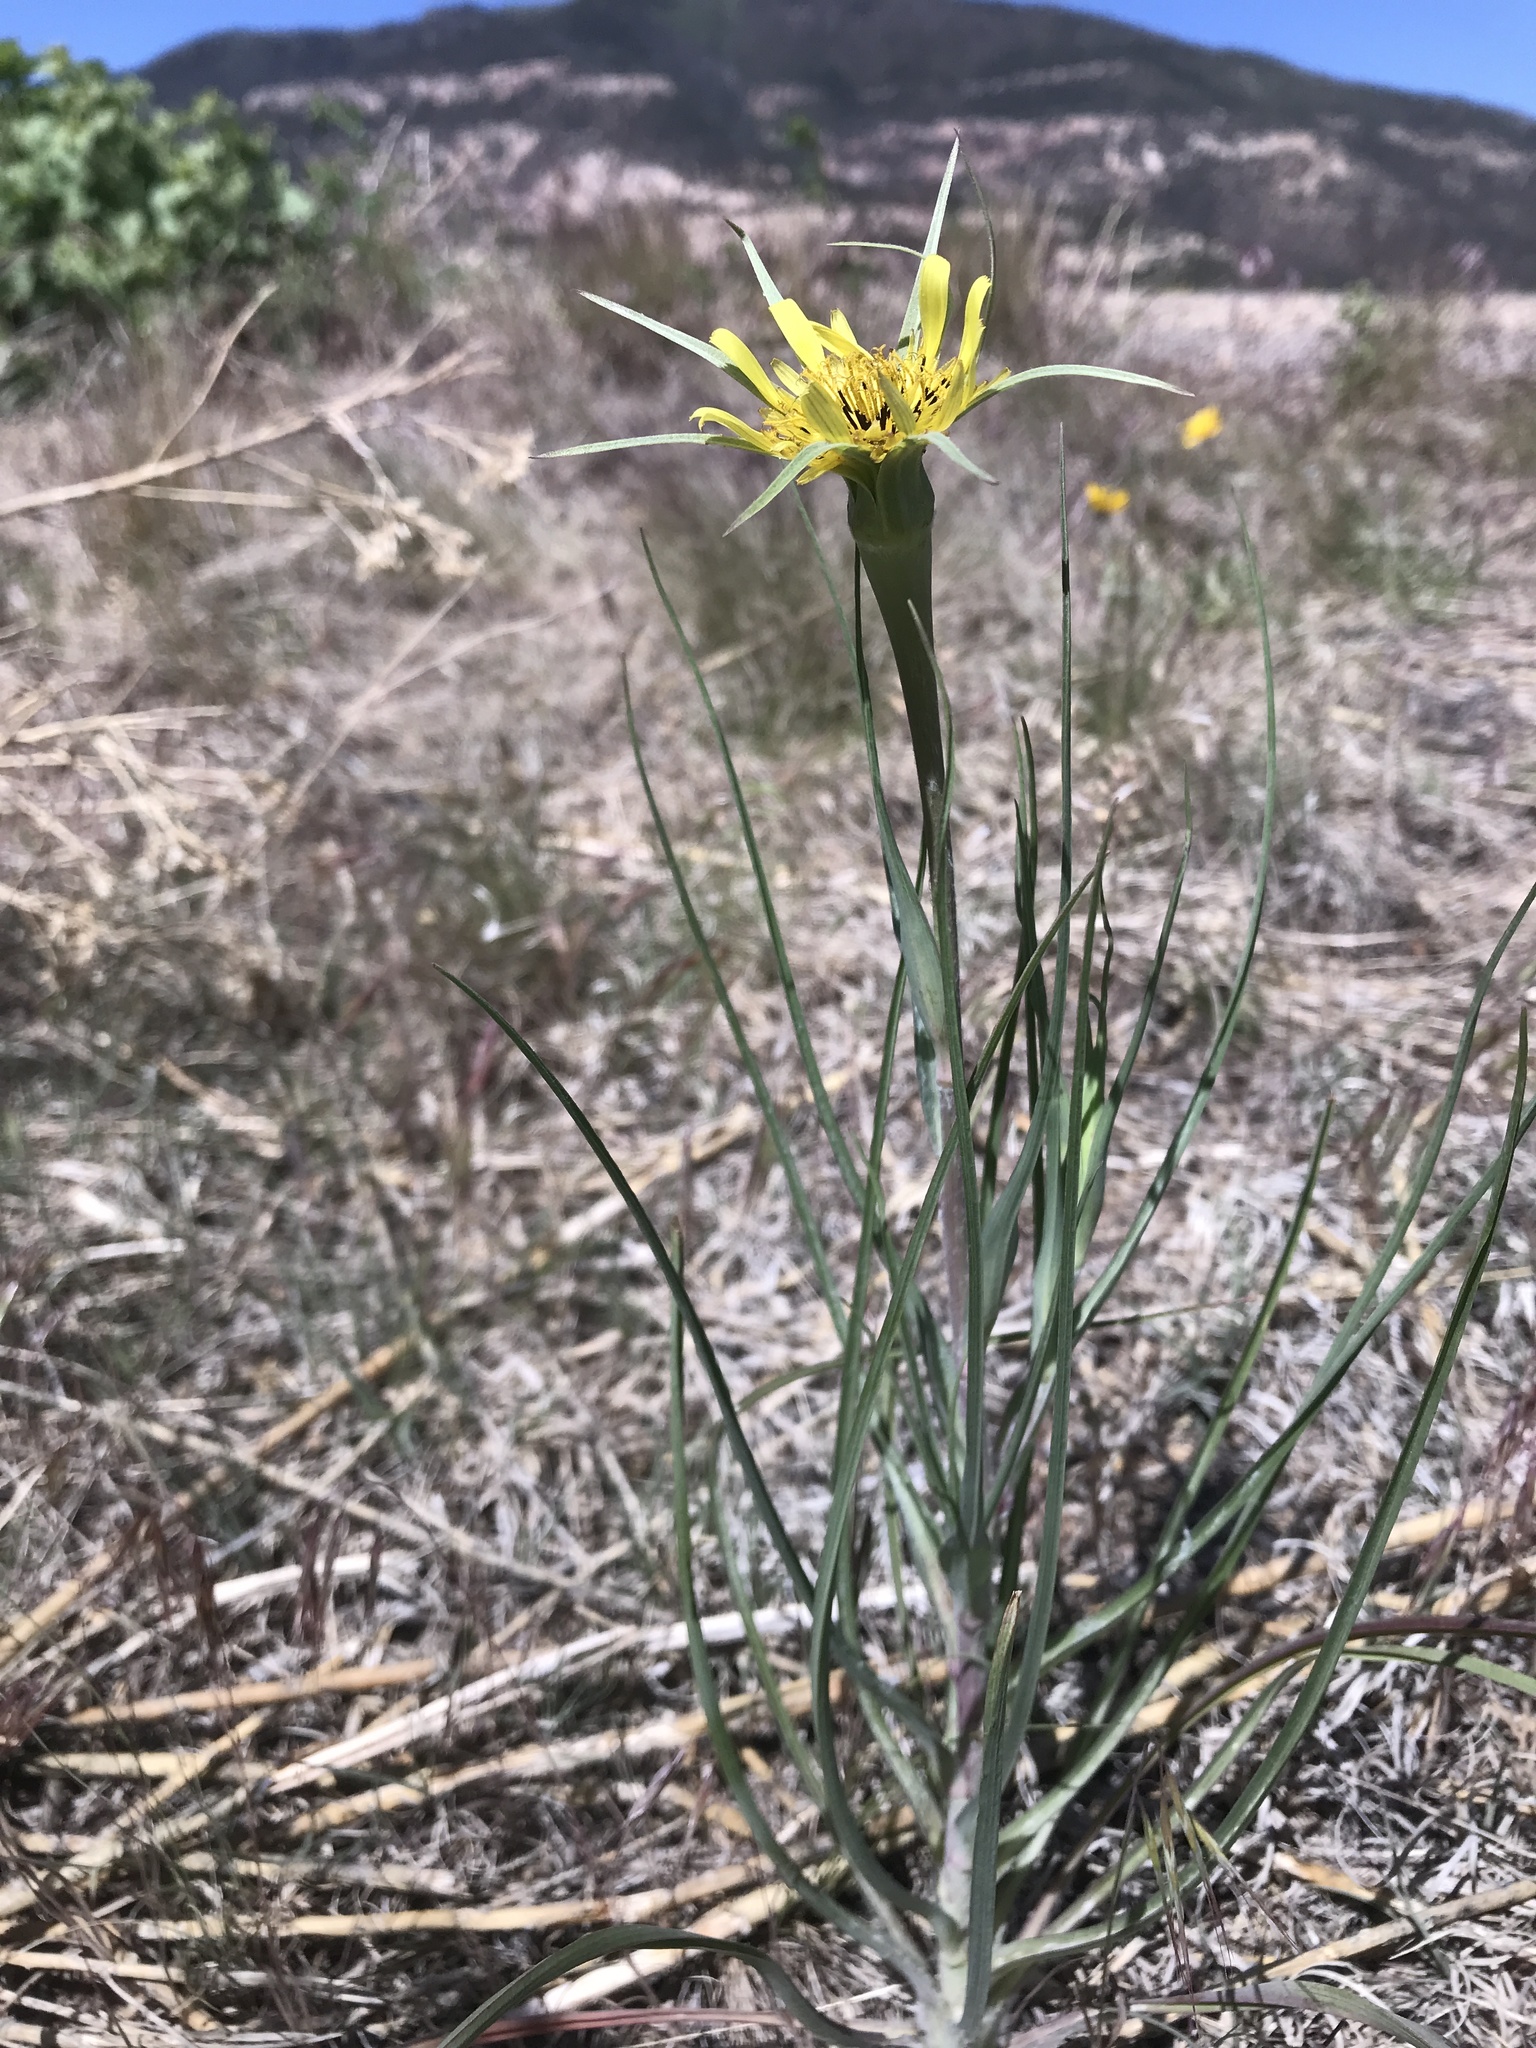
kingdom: Plantae
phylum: Tracheophyta
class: Magnoliopsida
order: Asterales
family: Asteraceae
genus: Tragopogon
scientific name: Tragopogon dubius
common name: Yellow salsify
